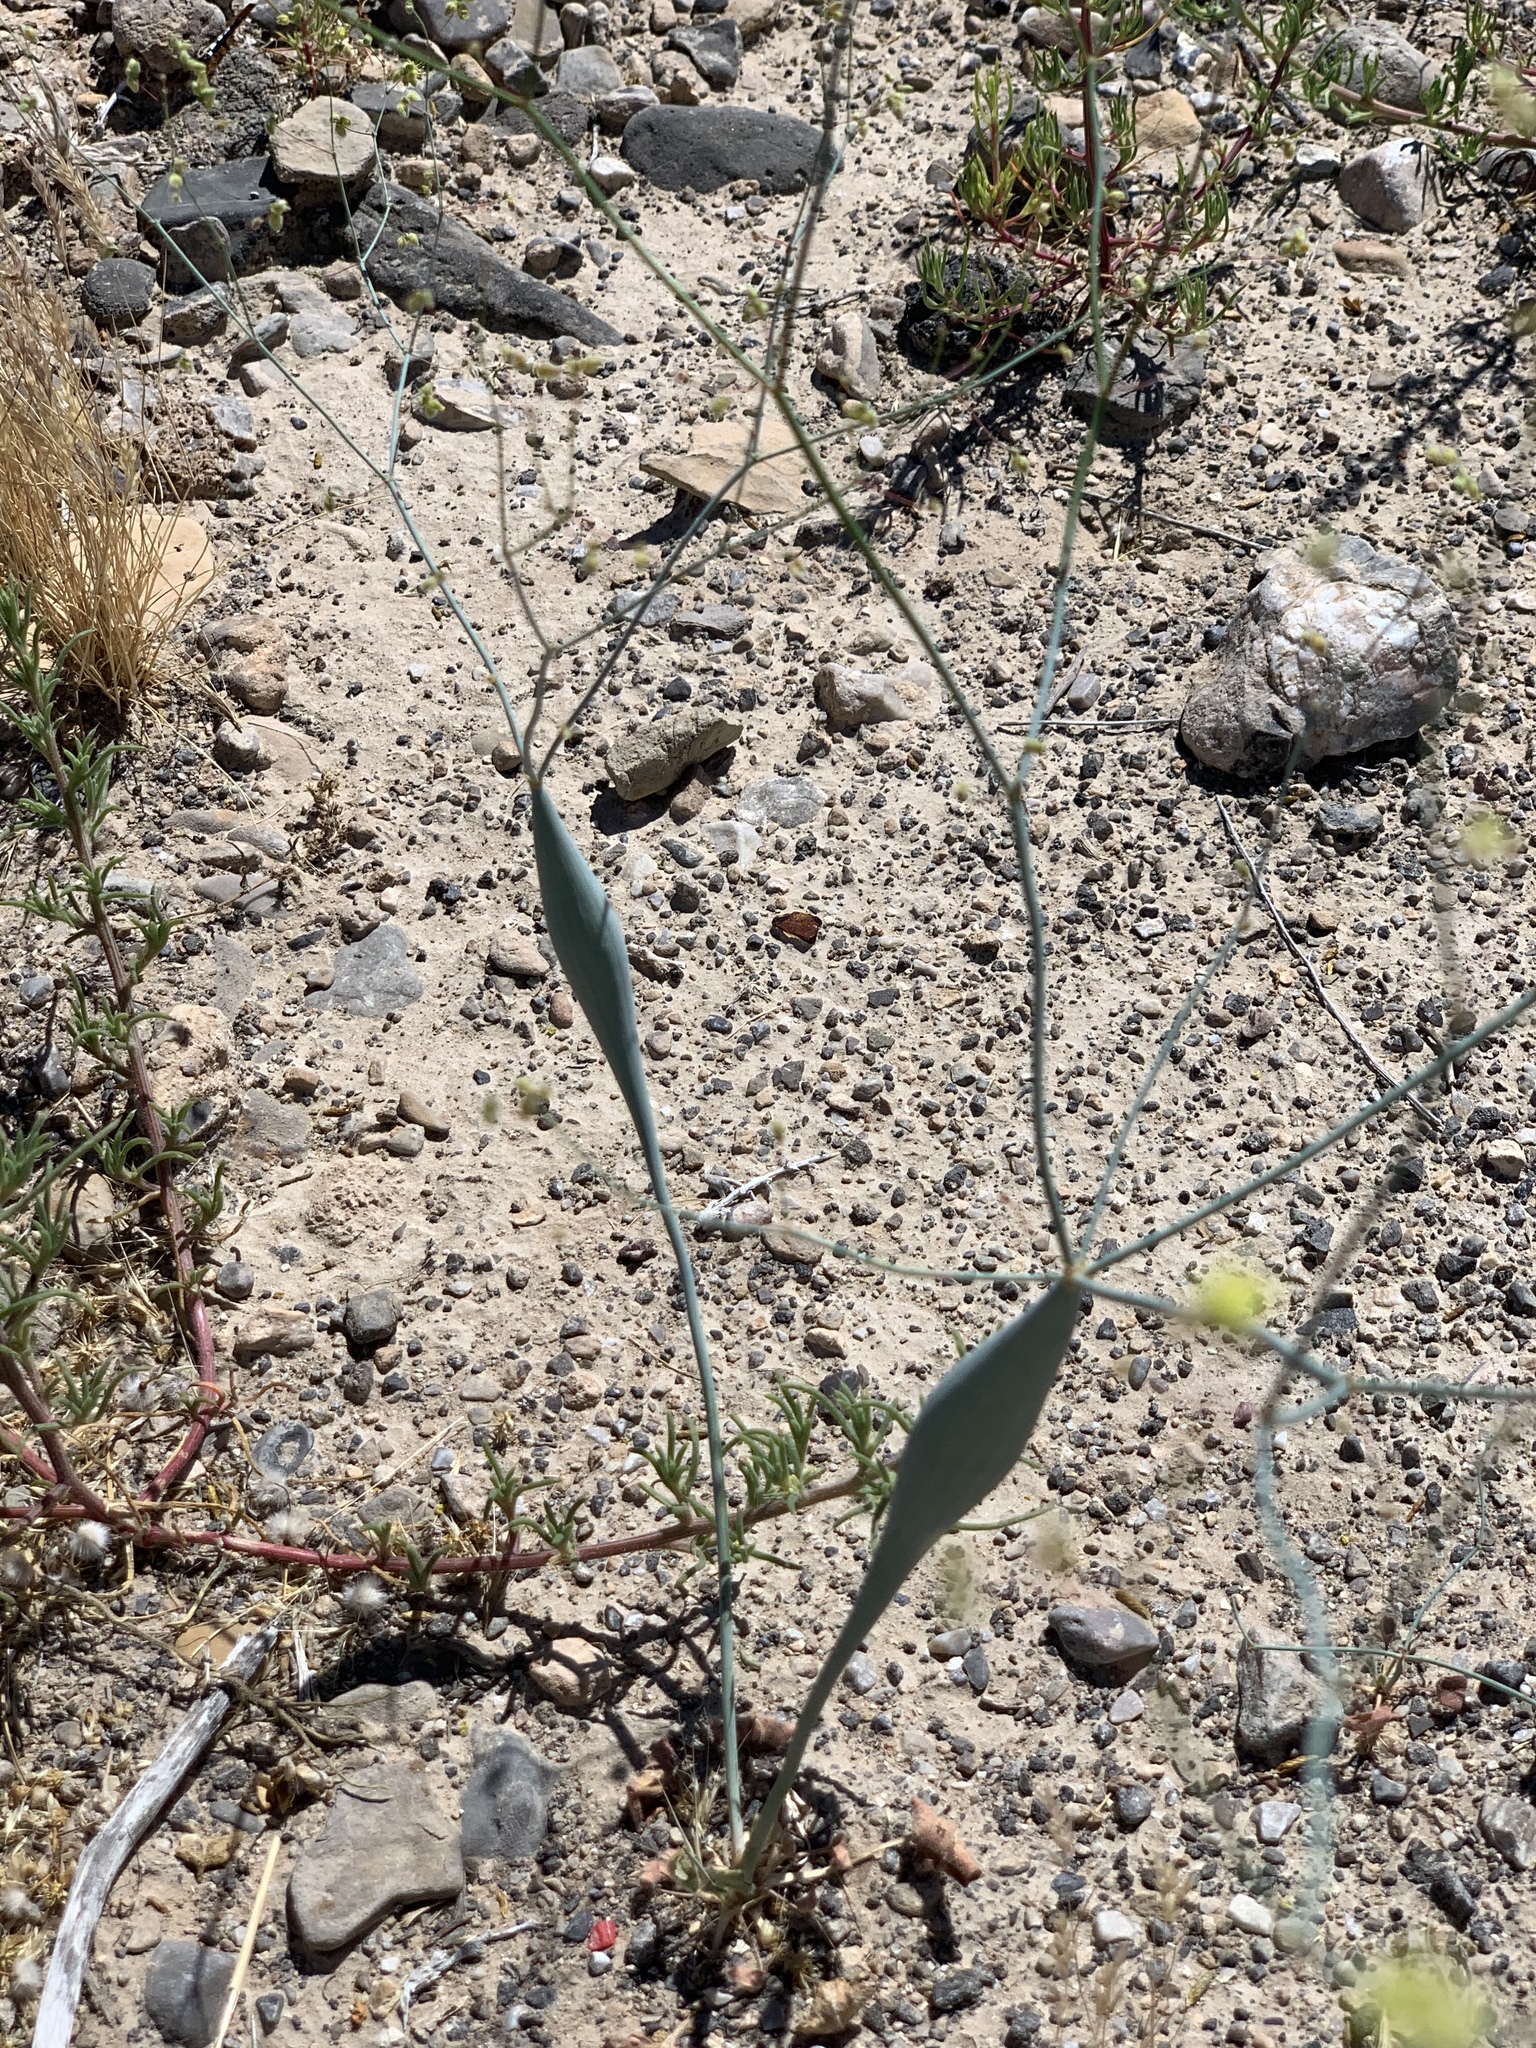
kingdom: Plantae
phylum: Tracheophyta
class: Magnoliopsida
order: Caryophyllales
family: Polygonaceae
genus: Eriogonum
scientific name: Eriogonum inflatum
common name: Desert trumpet
